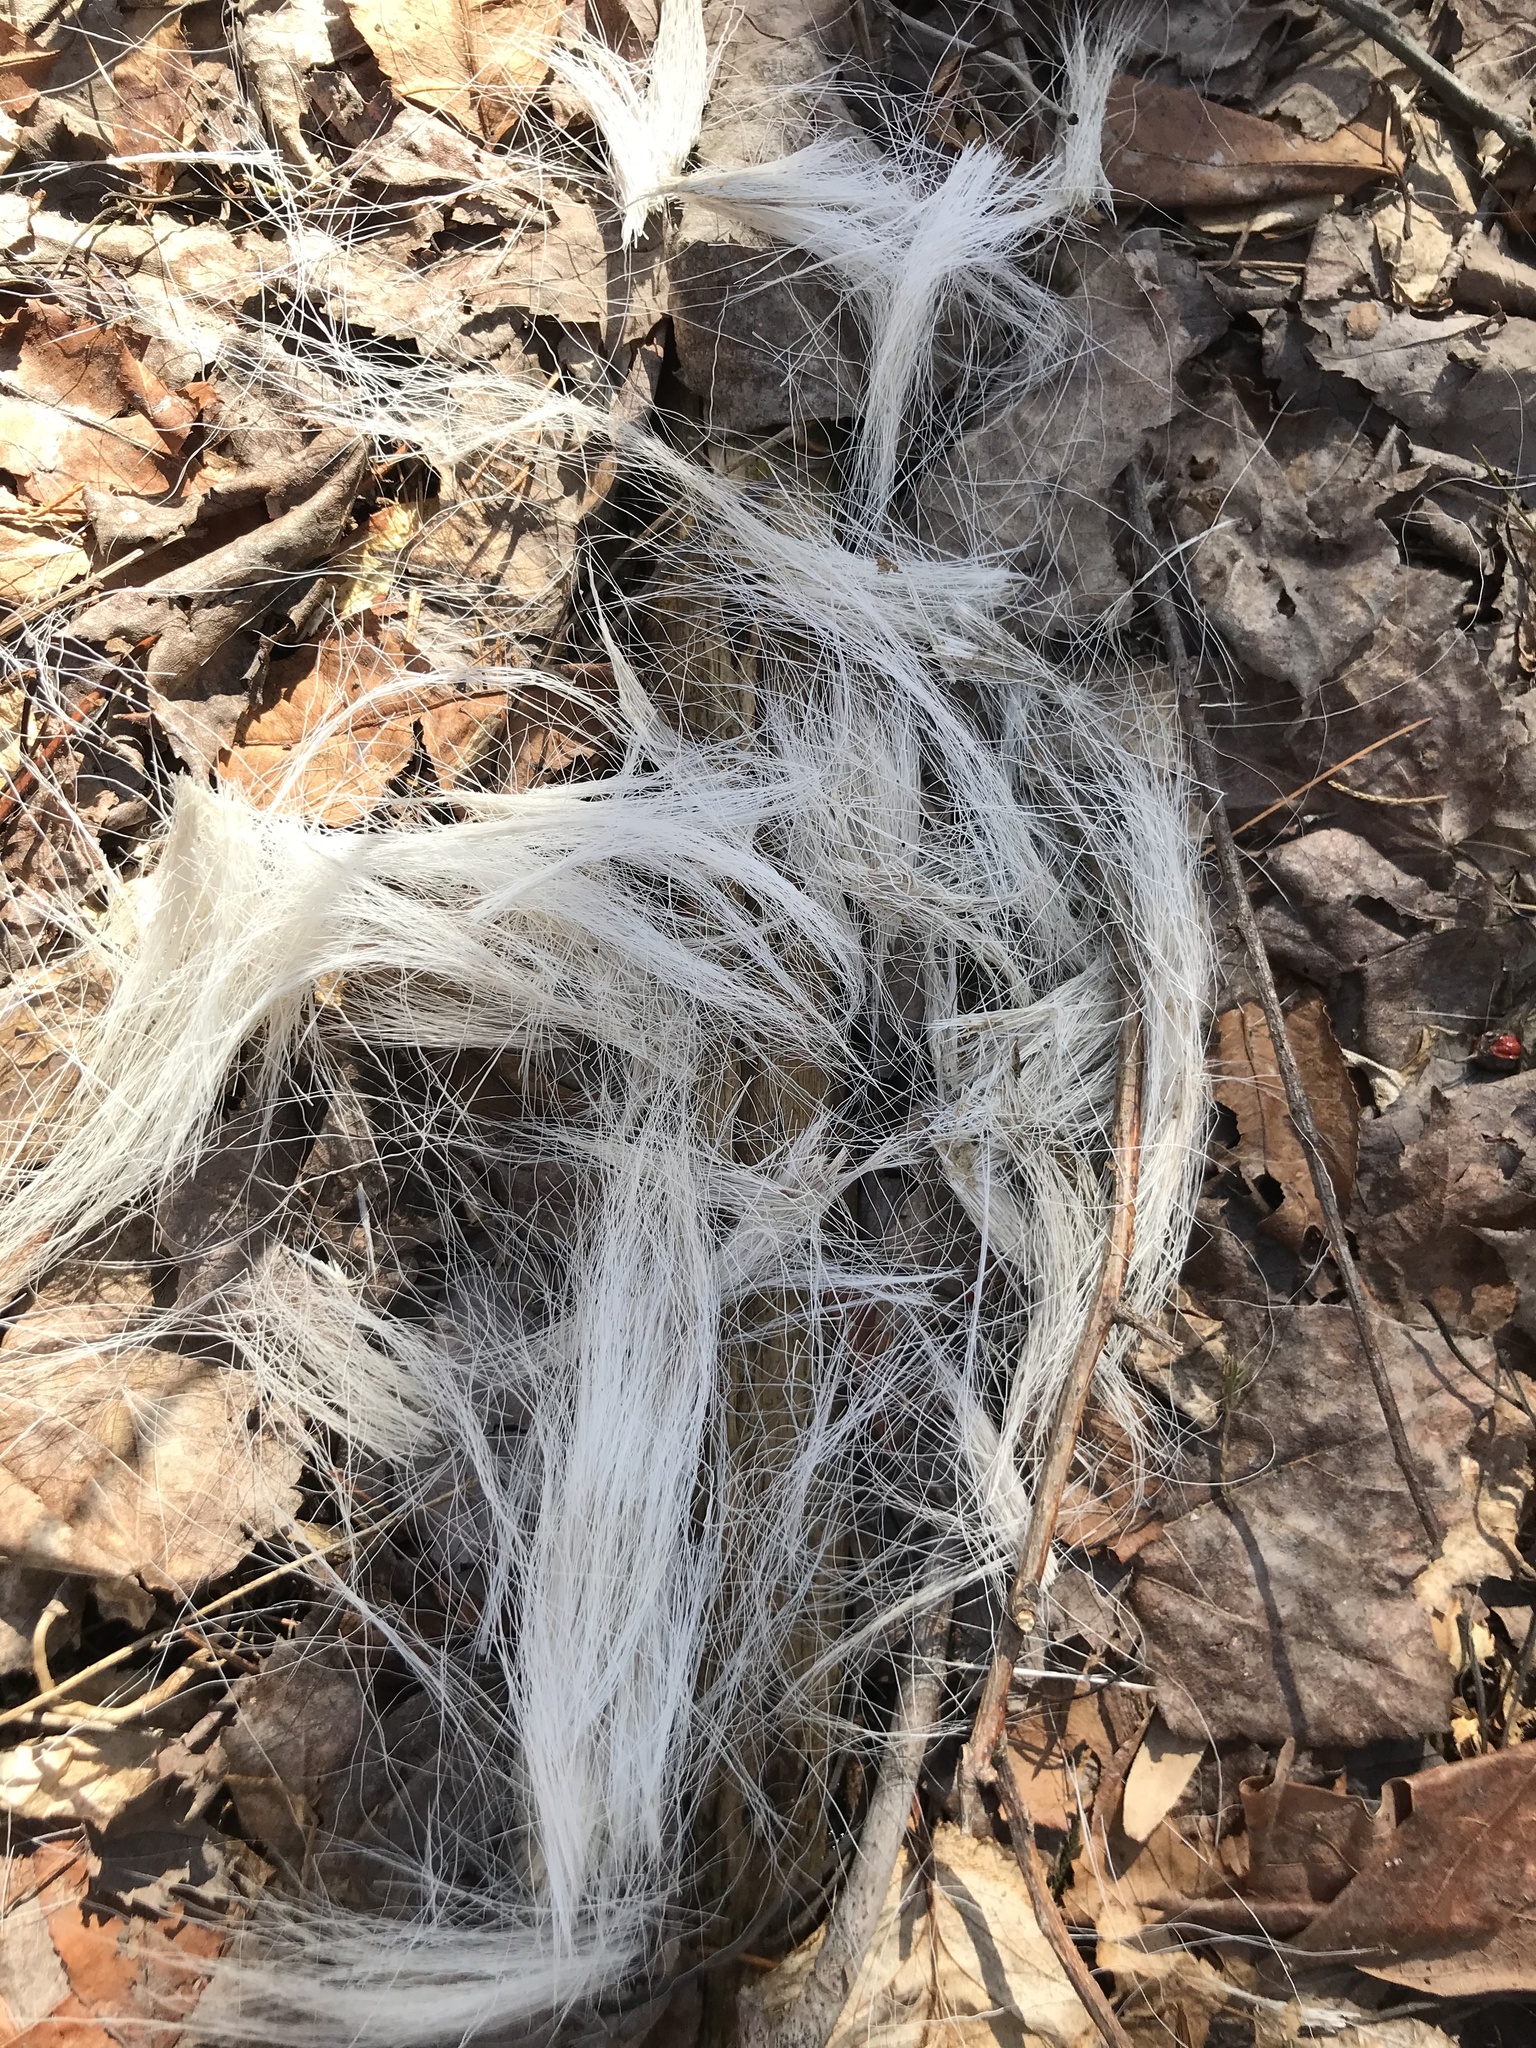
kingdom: Animalia
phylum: Chordata
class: Mammalia
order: Rodentia
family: Sciuridae
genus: Sciurus
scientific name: Sciurus carolinensis
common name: Eastern gray squirrel
